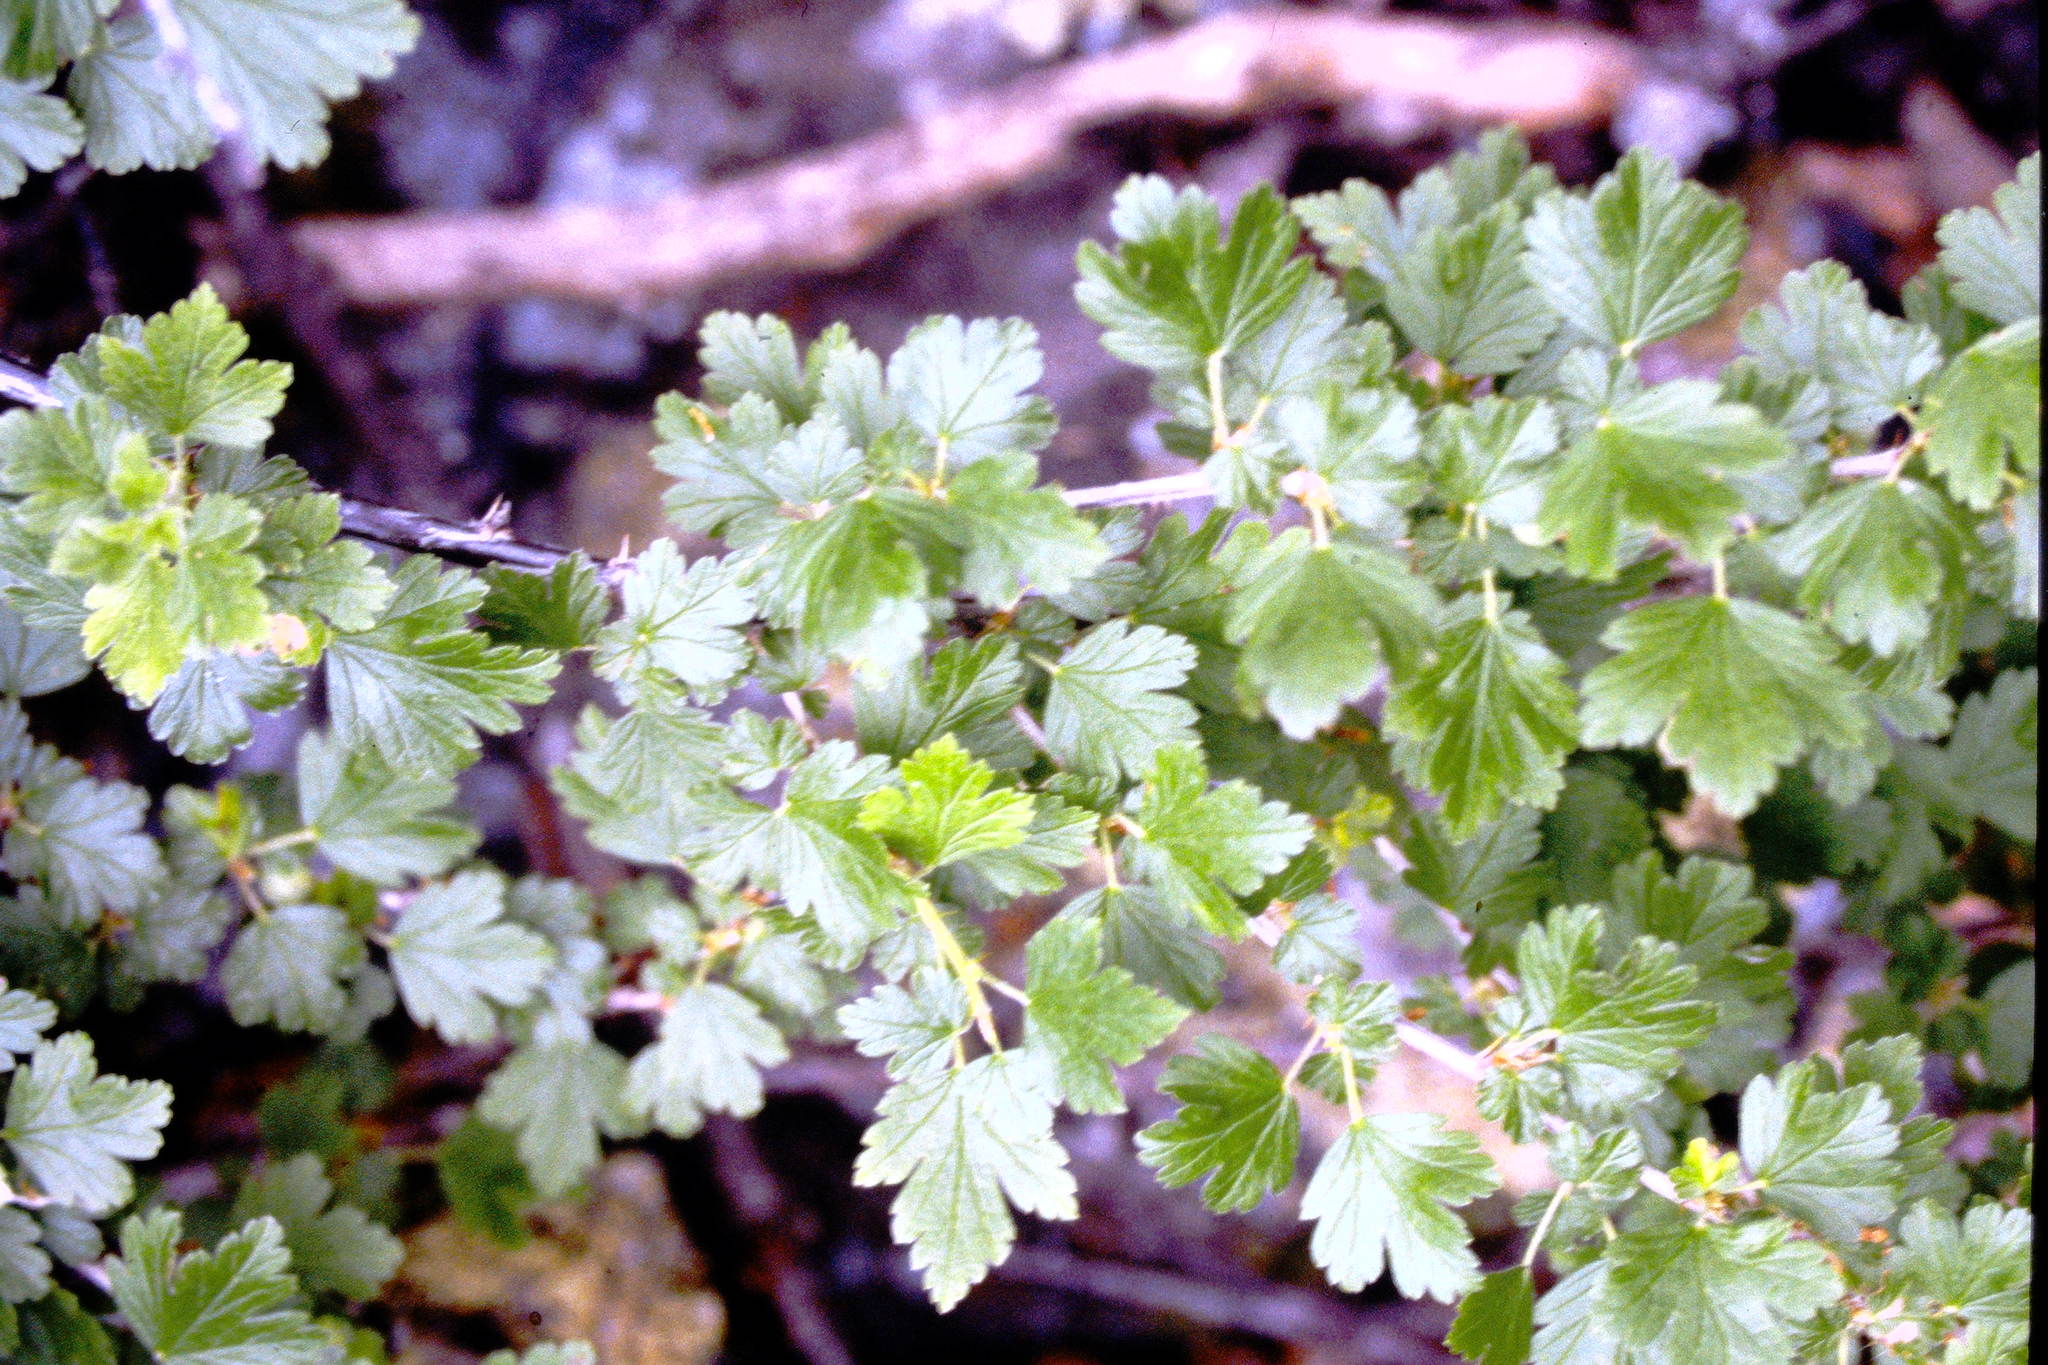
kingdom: Plantae
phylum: Tracheophyta
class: Magnoliopsida
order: Saxifragales
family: Grossulariaceae
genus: Ribes
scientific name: Ribes hirtellum
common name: Hairy gooseberry
